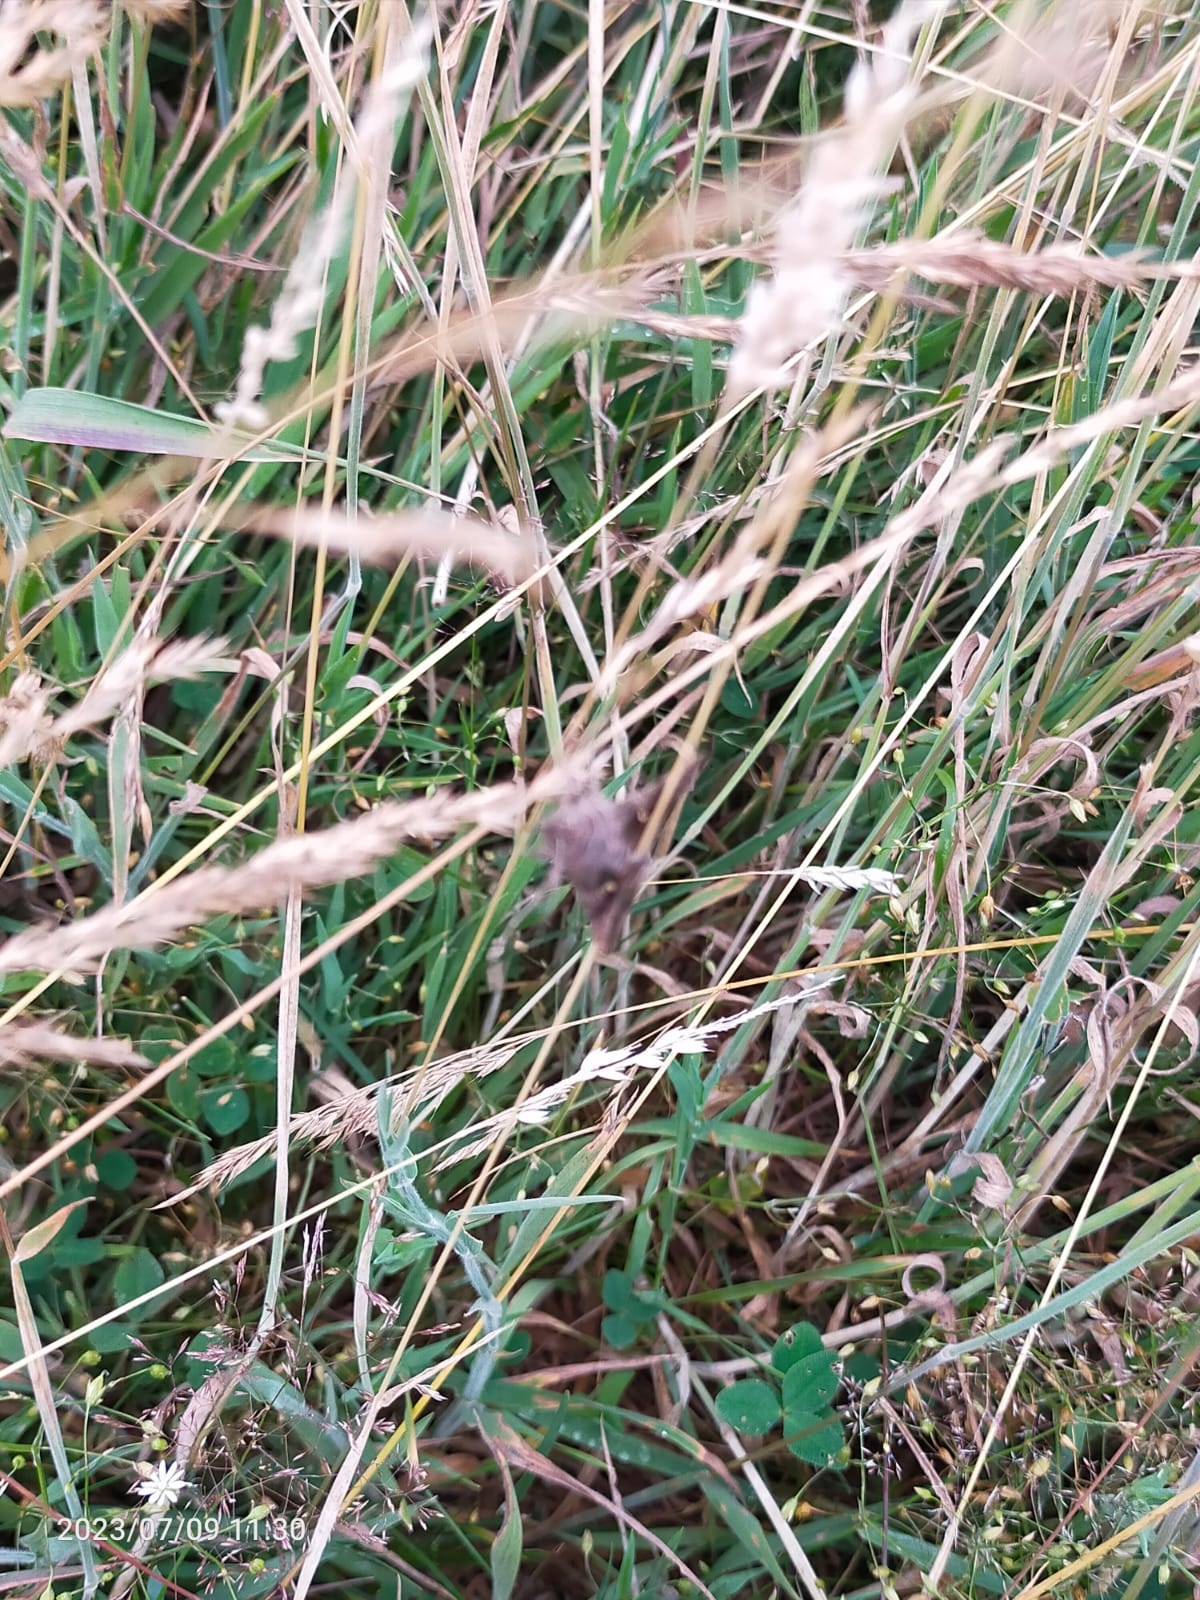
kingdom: Animalia
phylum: Arthropoda
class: Insecta
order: Lepidoptera
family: Noctuidae
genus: Autographa
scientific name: Autographa gamma
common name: Silver y
